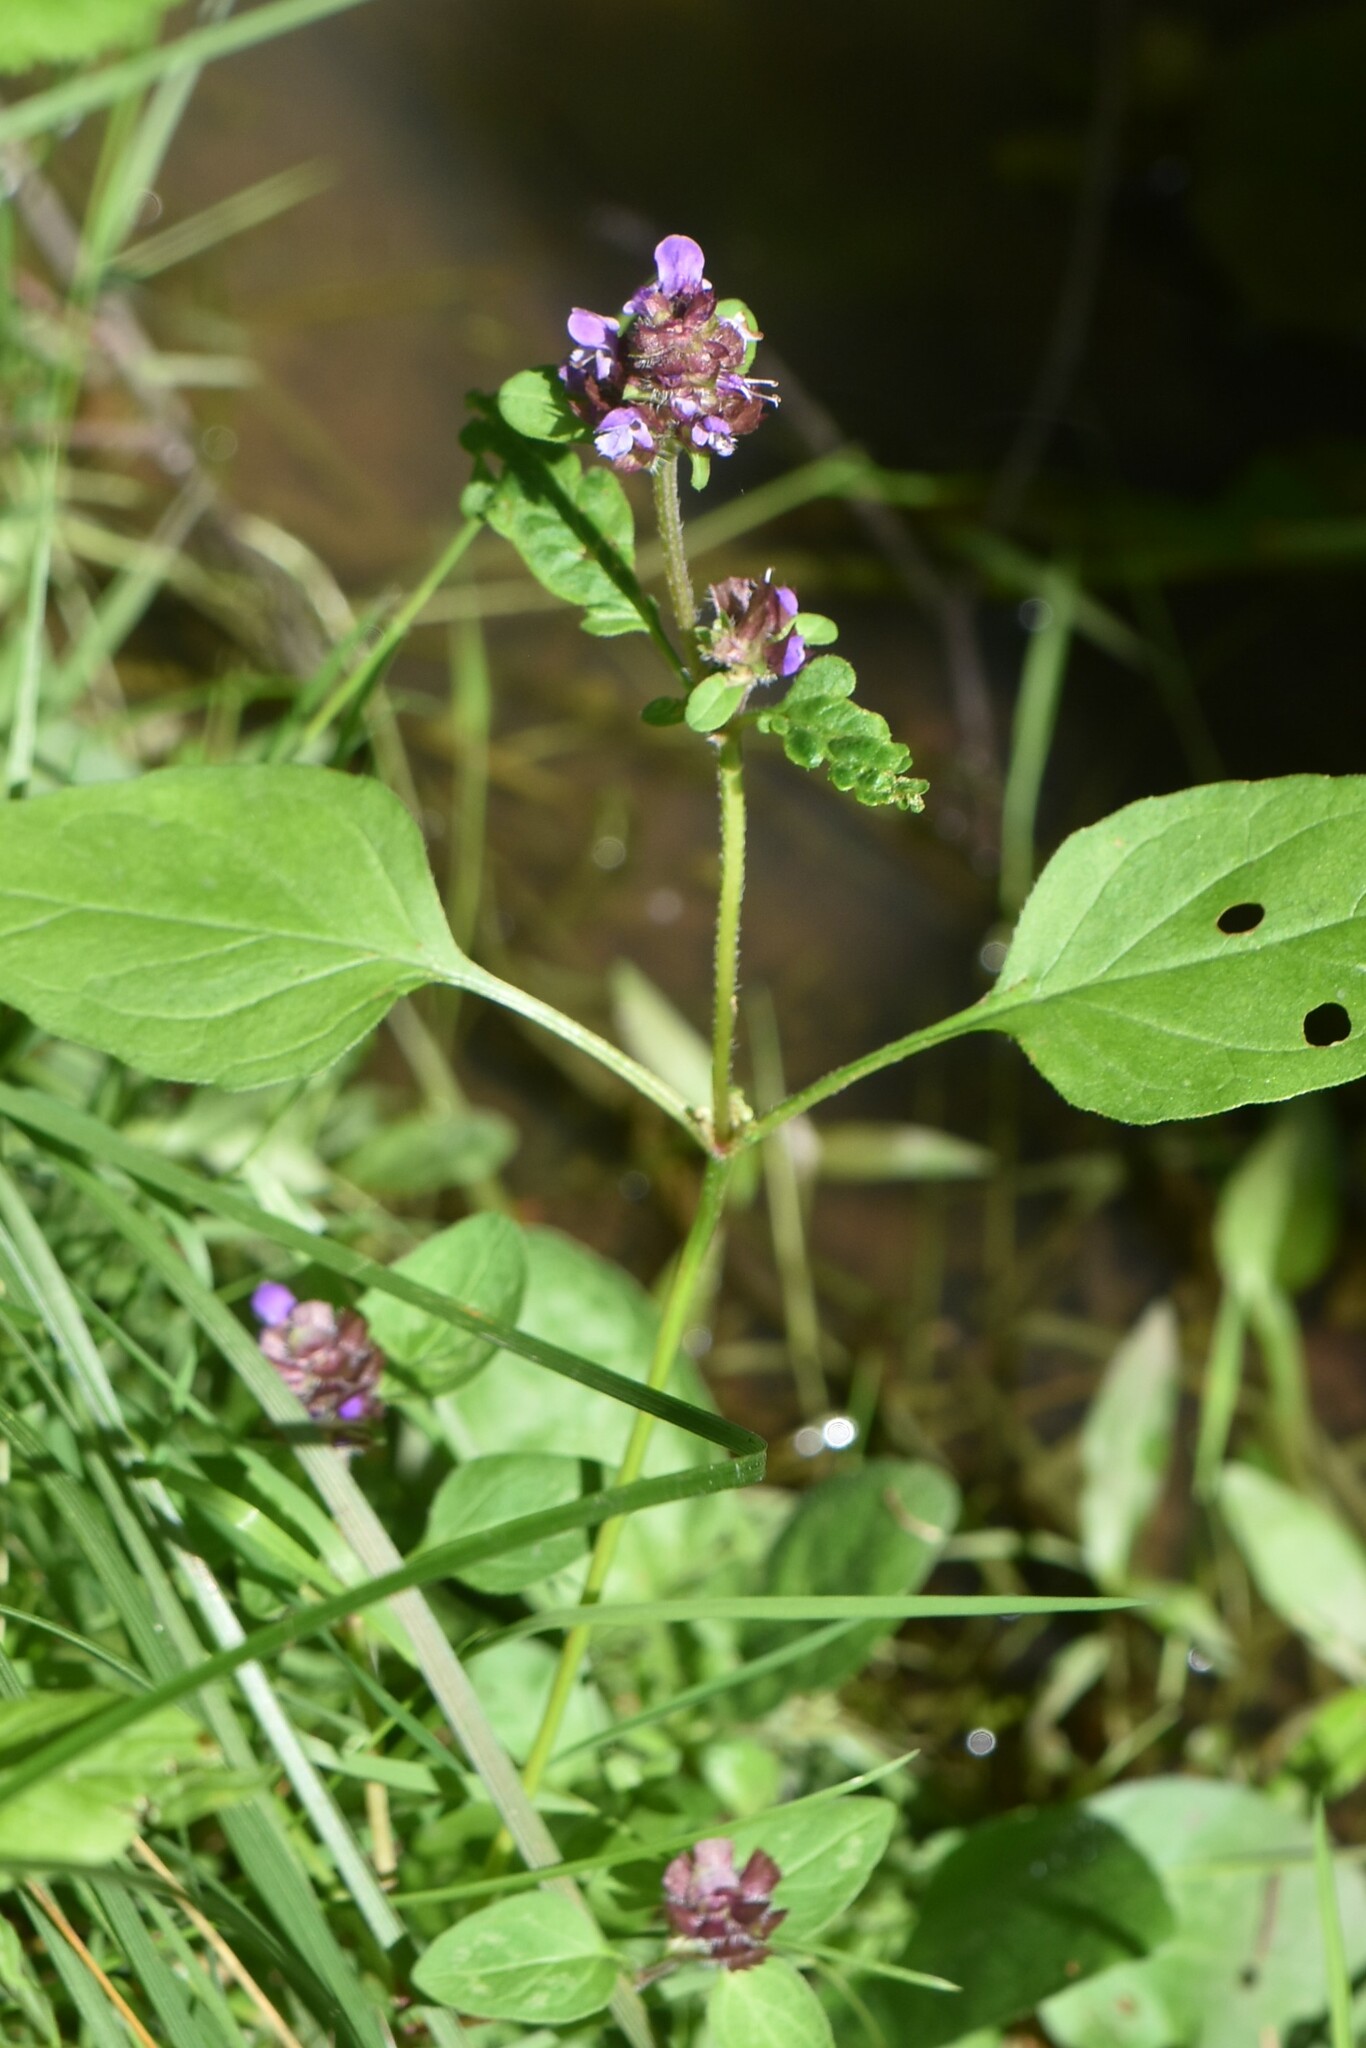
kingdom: Plantae
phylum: Tracheophyta
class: Magnoliopsida
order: Lamiales
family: Lamiaceae
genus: Prunella
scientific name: Prunella vulgaris
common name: Heal-all
